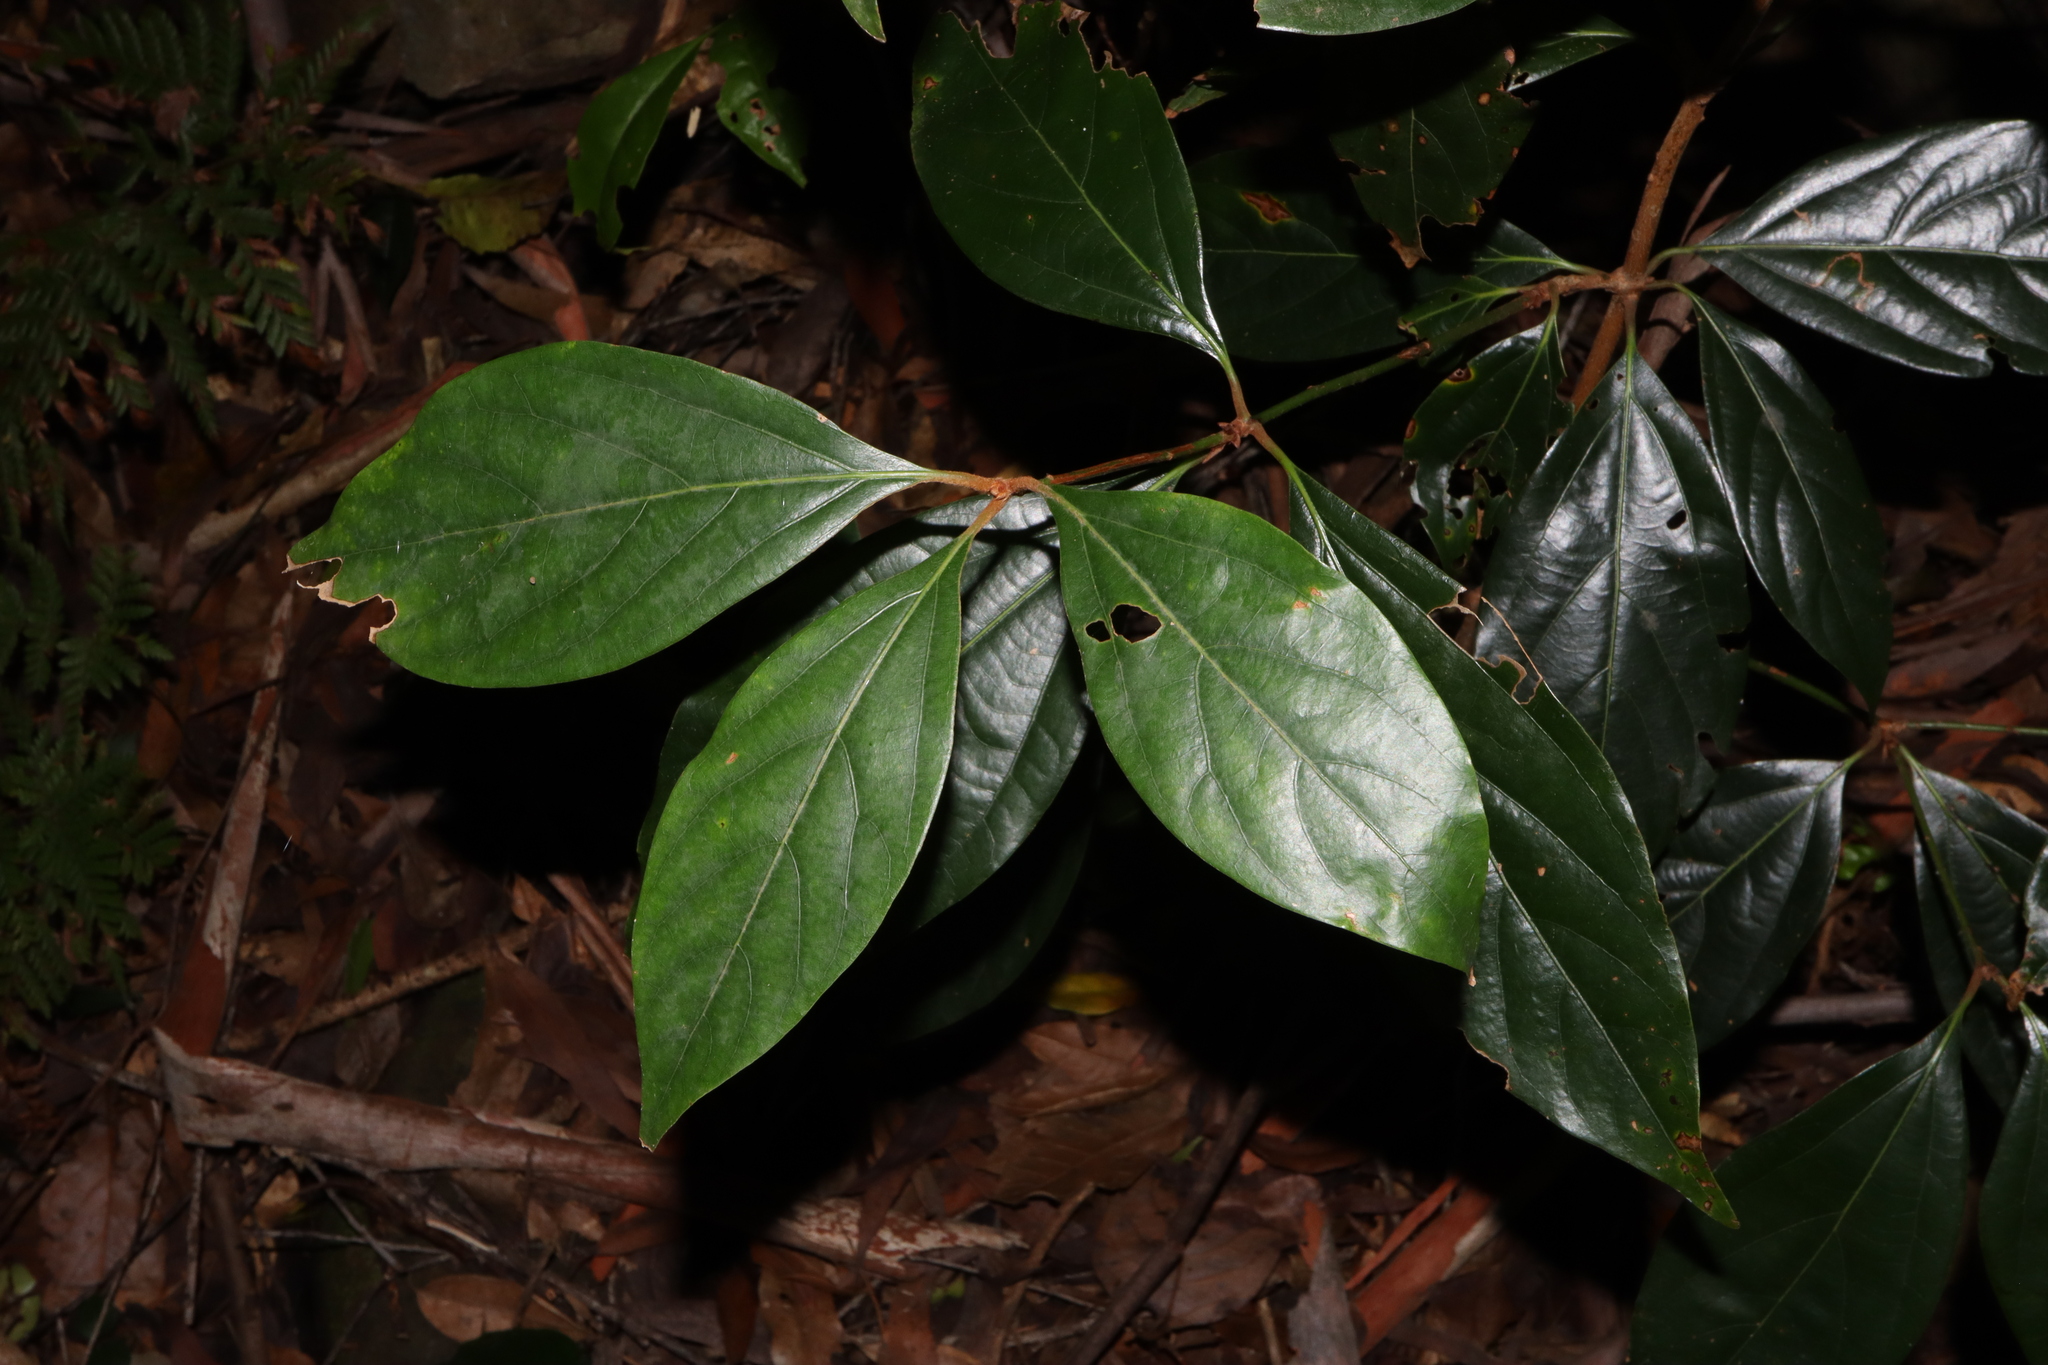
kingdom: Plantae
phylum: Tracheophyta
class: Magnoliopsida
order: Laurales
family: Lauraceae
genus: Neolitsea
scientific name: Neolitsea dealbata
